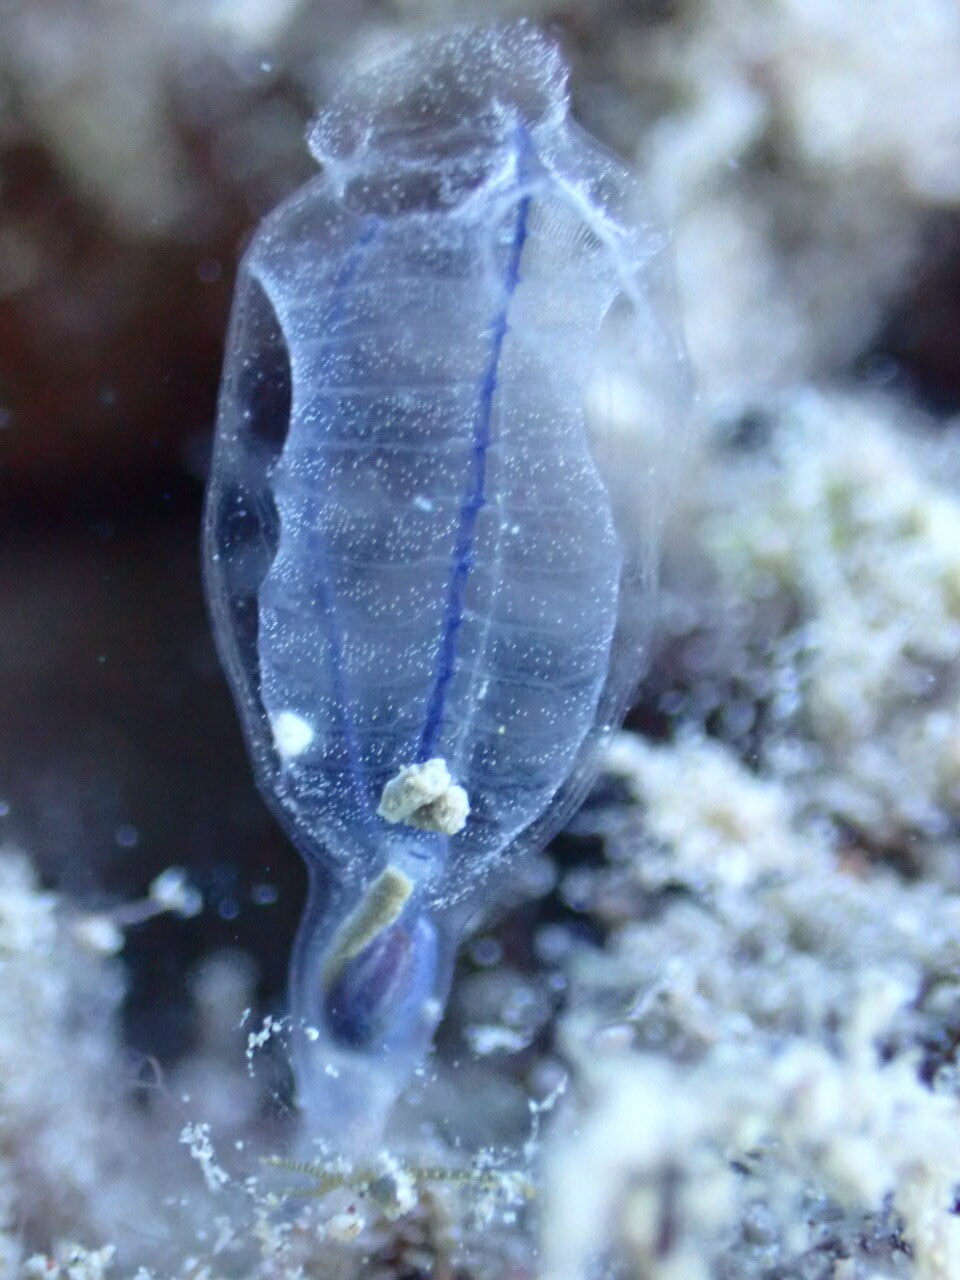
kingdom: Animalia
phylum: Chordata
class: Ascidiacea
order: Aplousobranchia
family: Clavelinidae
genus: Clavelina
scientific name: Clavelina dellavallei
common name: Bluestriped light bulb tunicate
